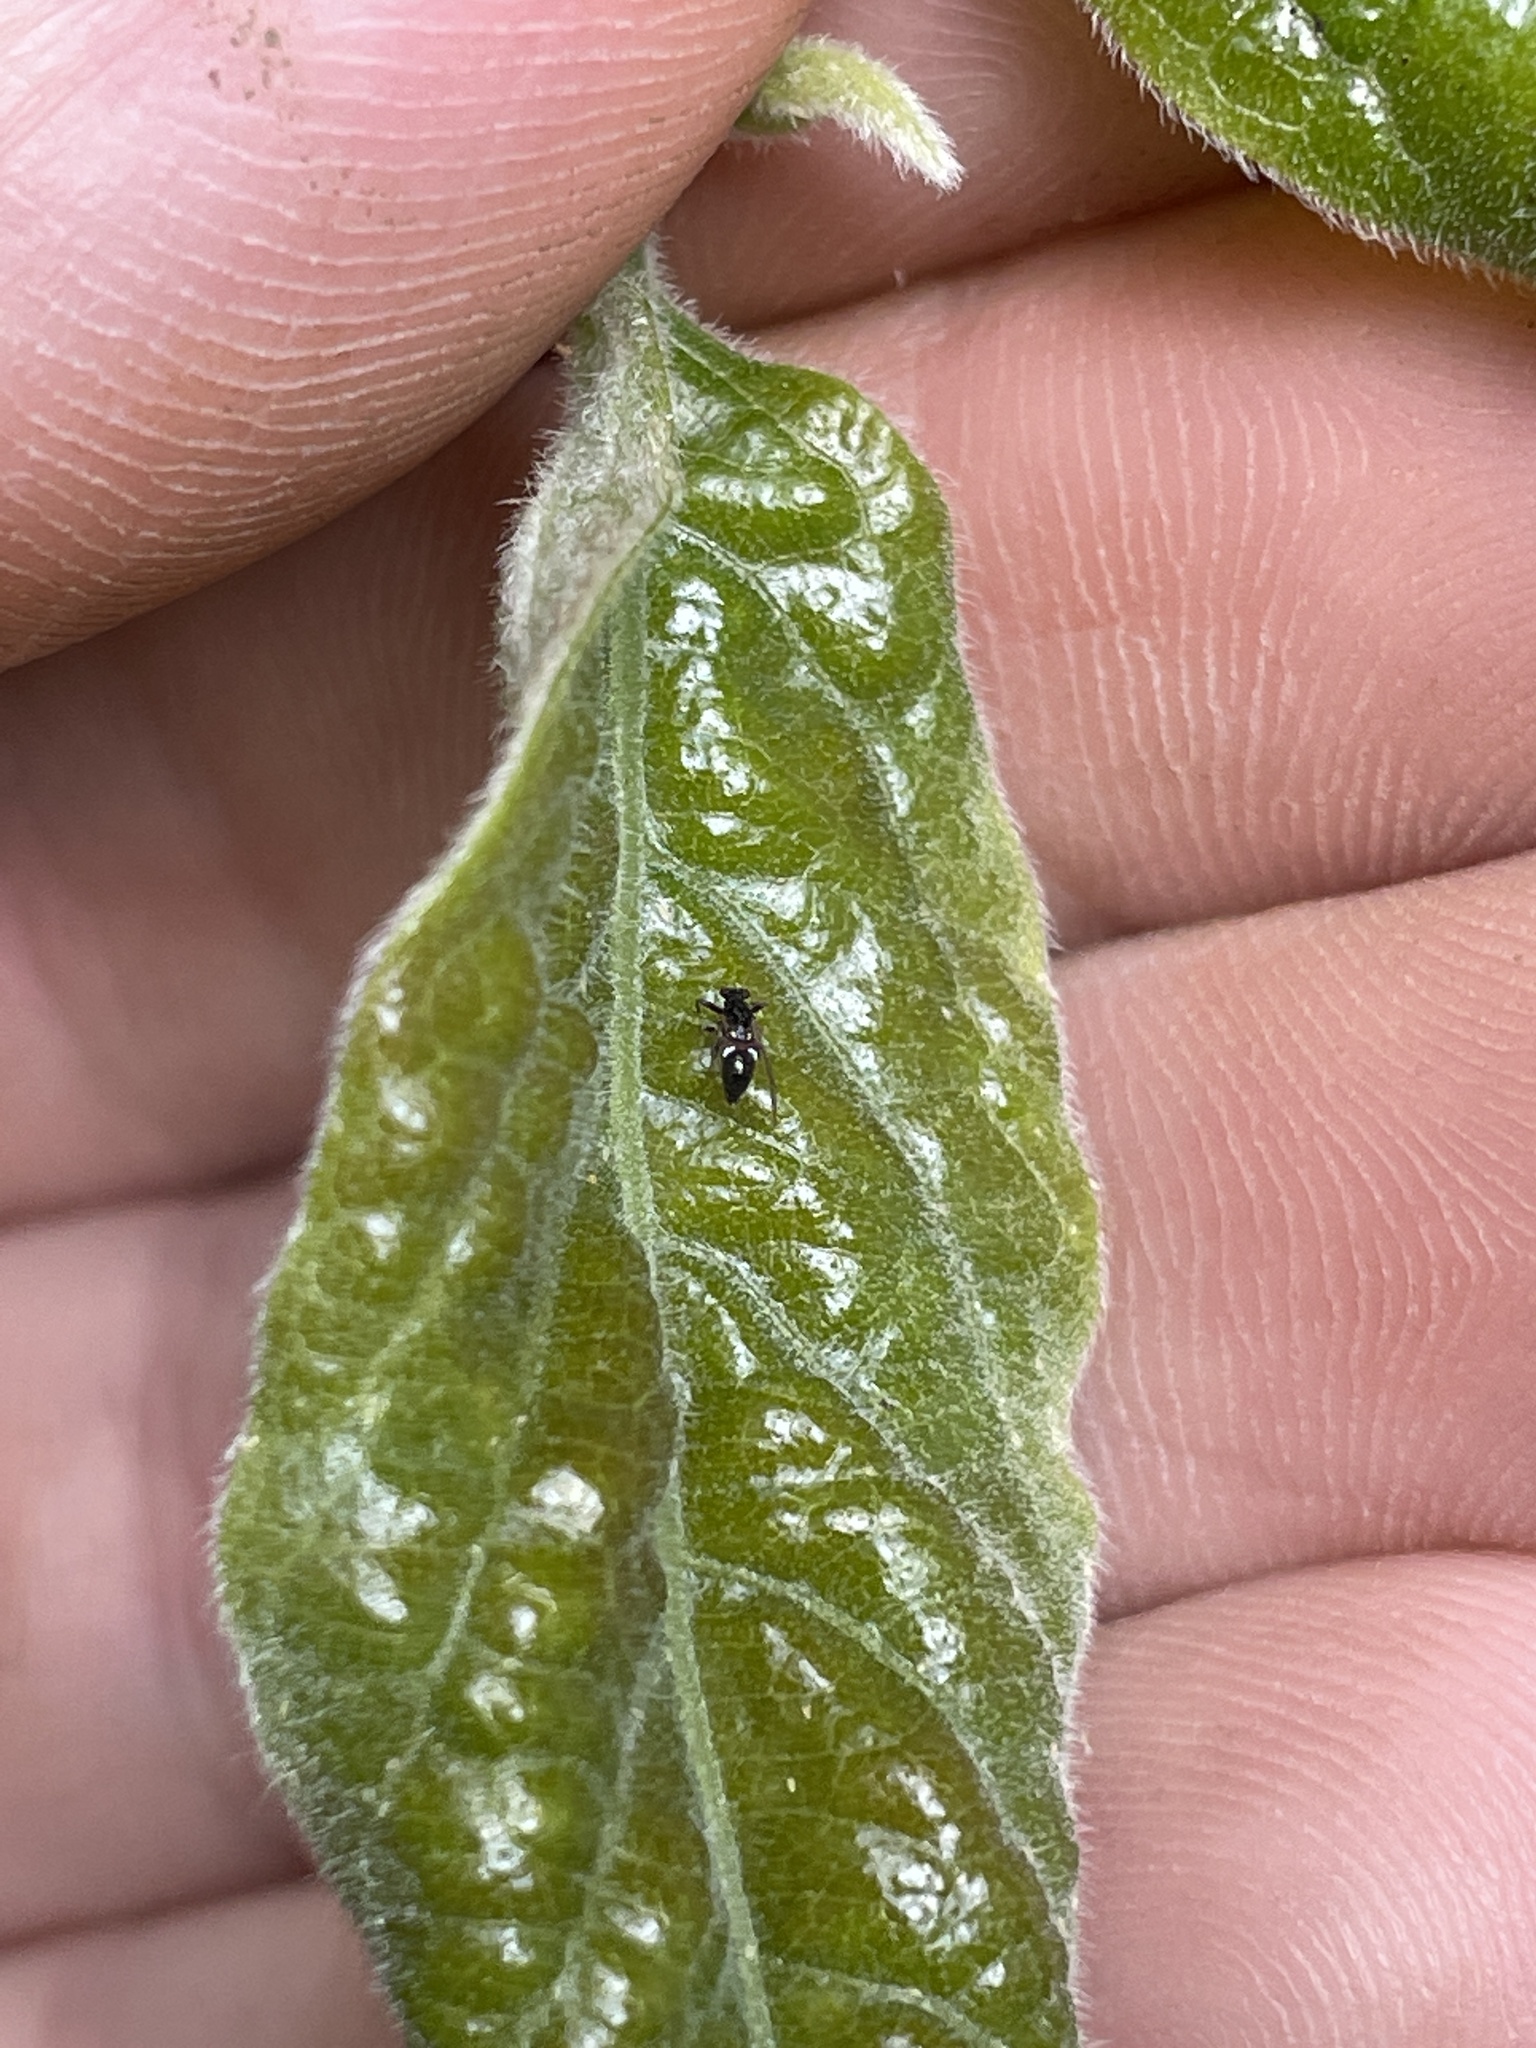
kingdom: Animalia
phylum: Arthropoda
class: Insecta
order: Hemiptera
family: Triozidae
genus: Baeoalitriozus
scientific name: Baeoalitriozus diospyri
